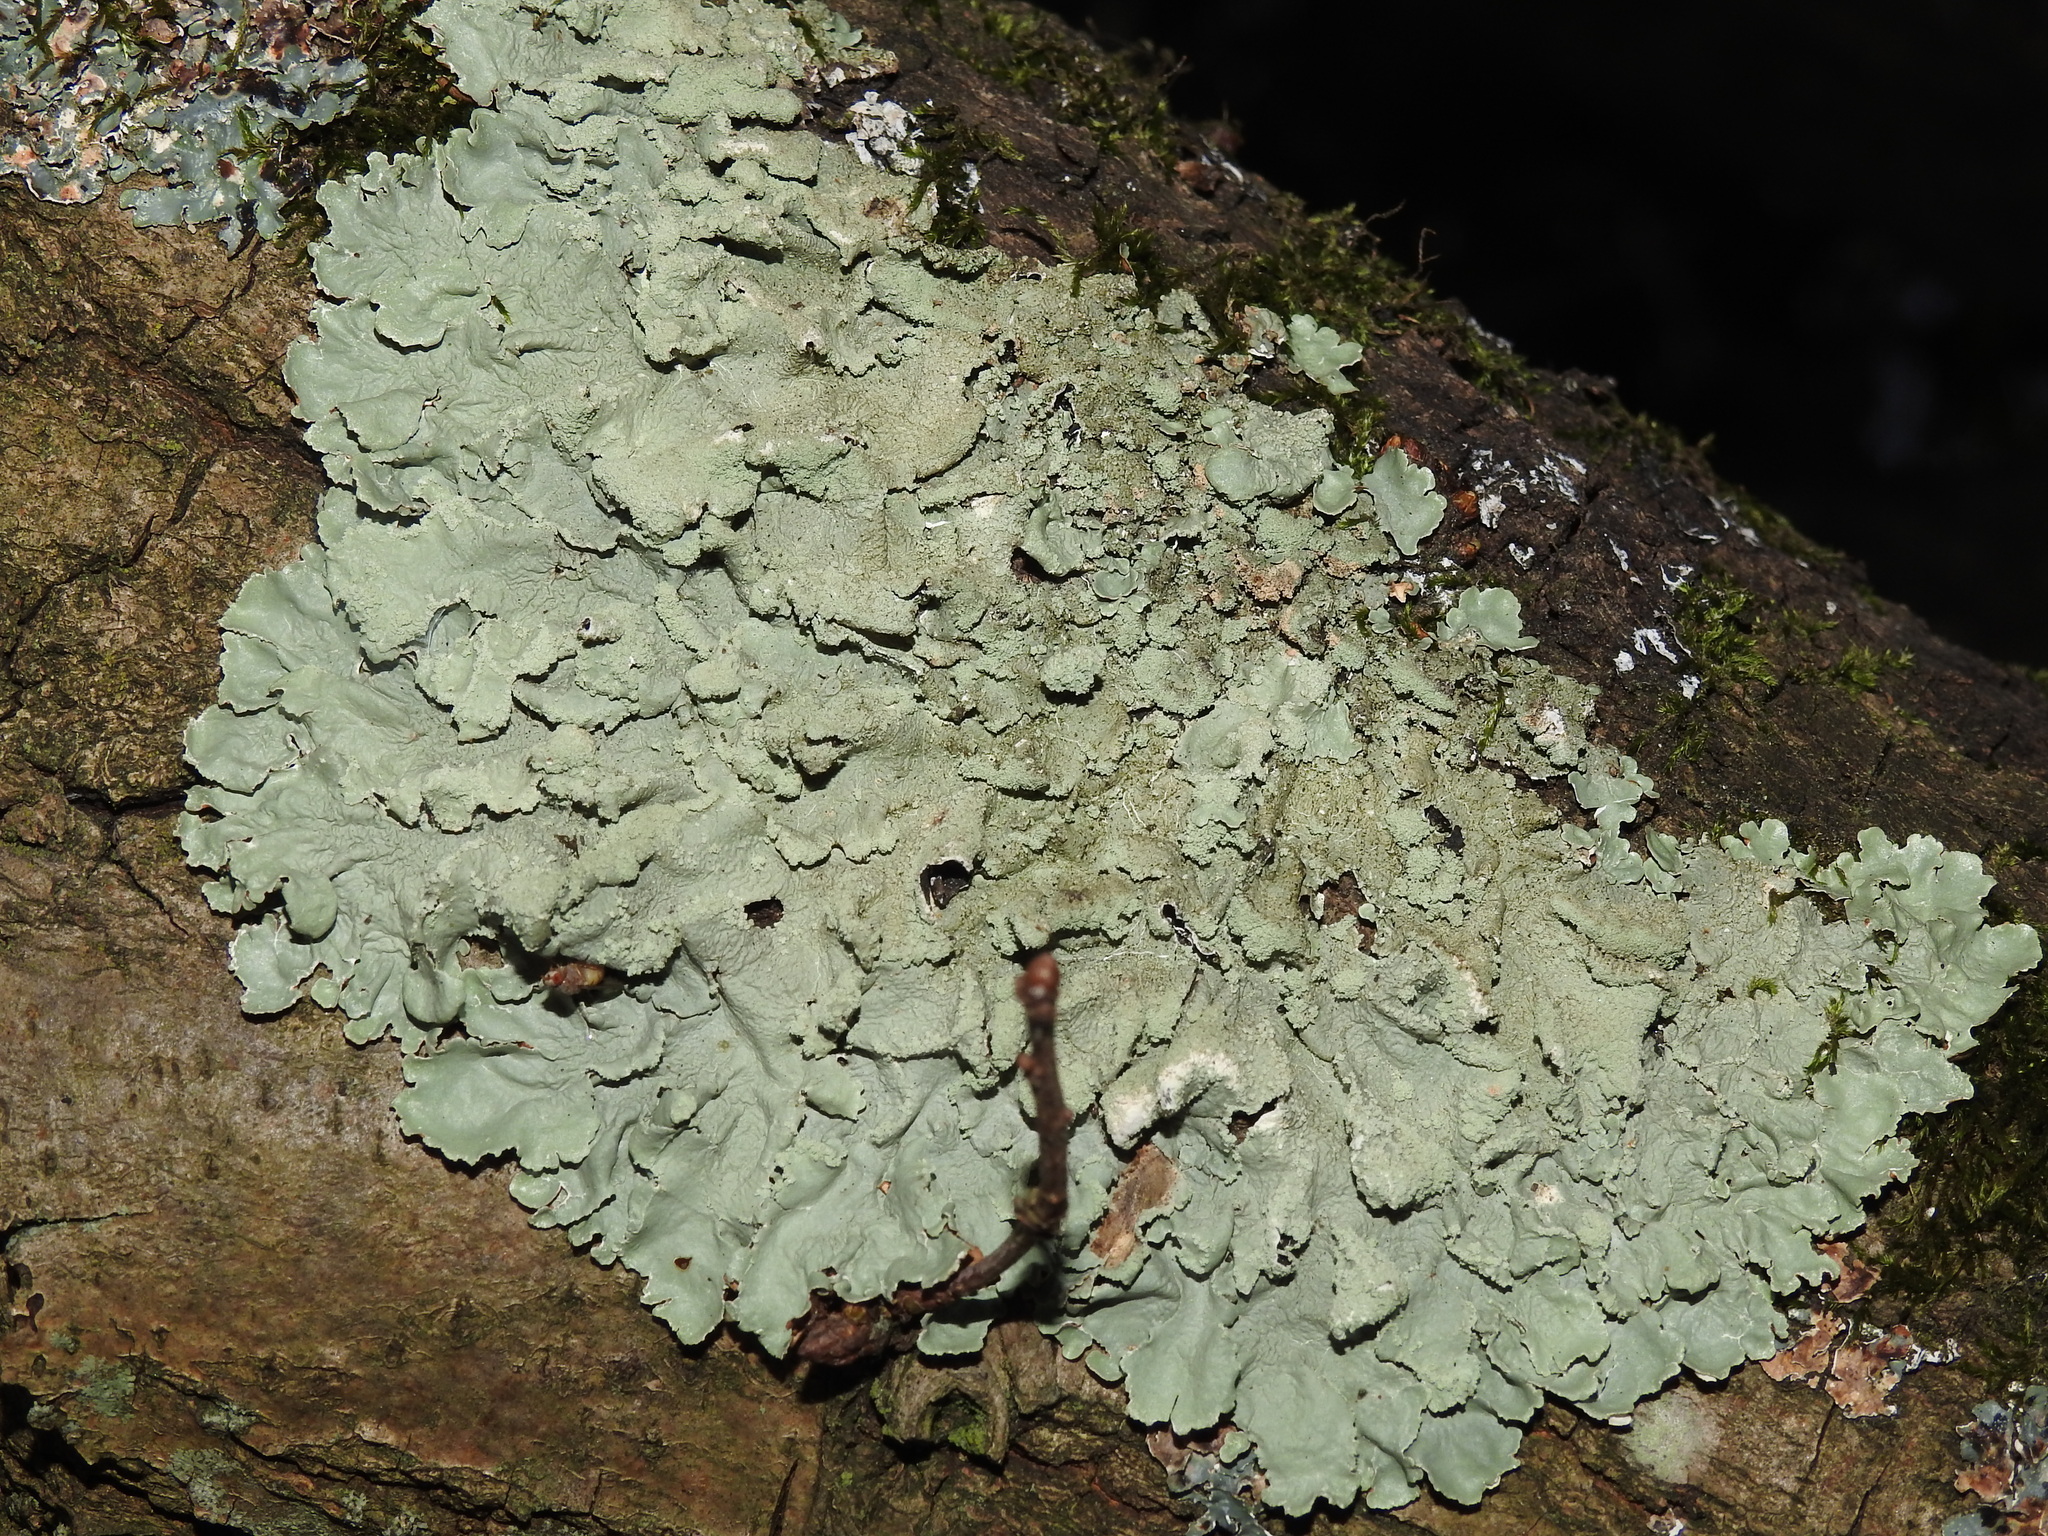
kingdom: Fungi
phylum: Ascomycota
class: Lecanoromycetes
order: Lecanorales
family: Parmeliaceae
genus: Flavoparmelia
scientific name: Flavoparmelia caperata
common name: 40-mile per hour lichen
